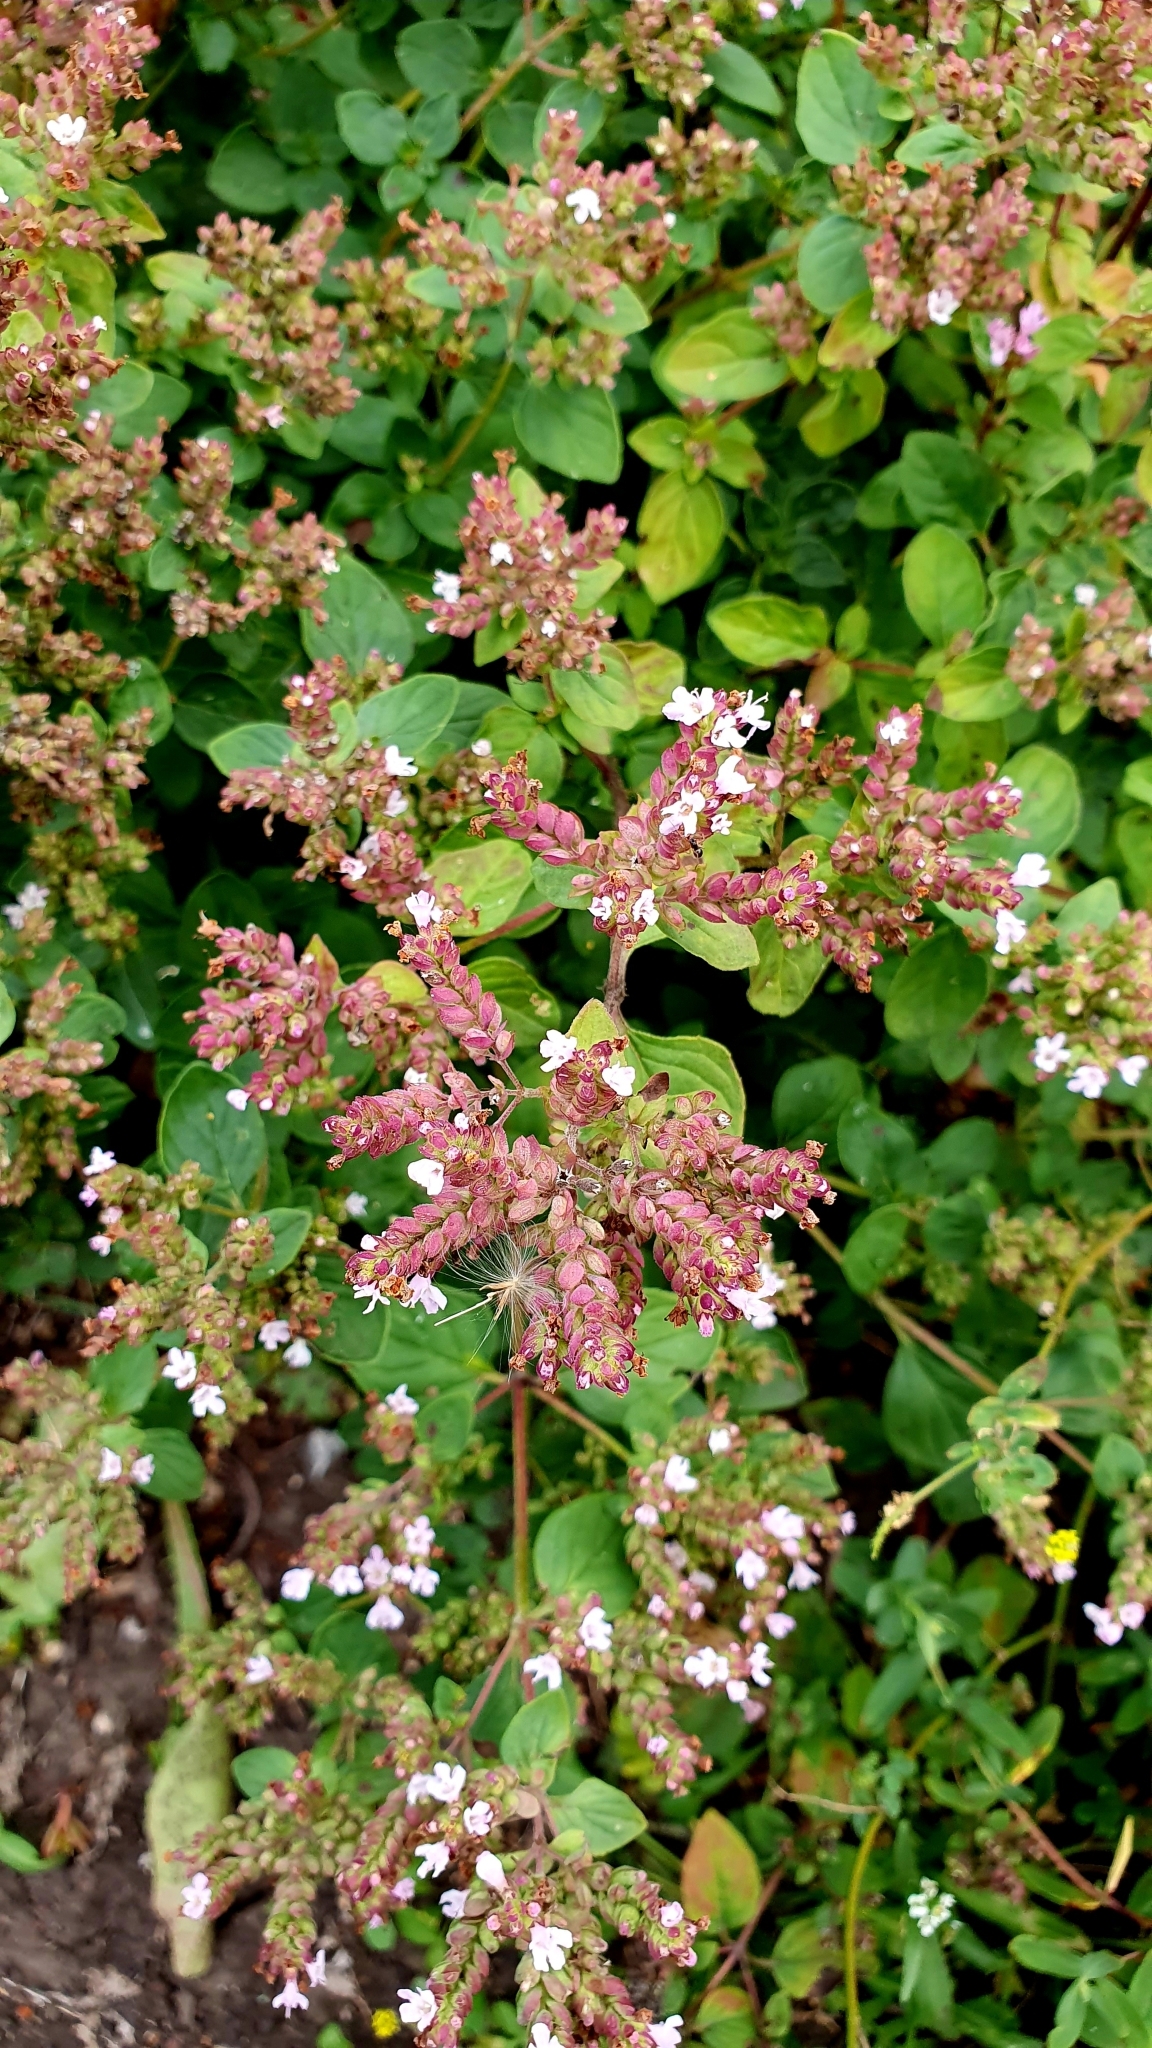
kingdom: Plantae
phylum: Tracheophyta
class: Magnoliopsida
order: Lamiales
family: Lamiaceae
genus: Origanum
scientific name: Origanum vulgare
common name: Wild marjoram
